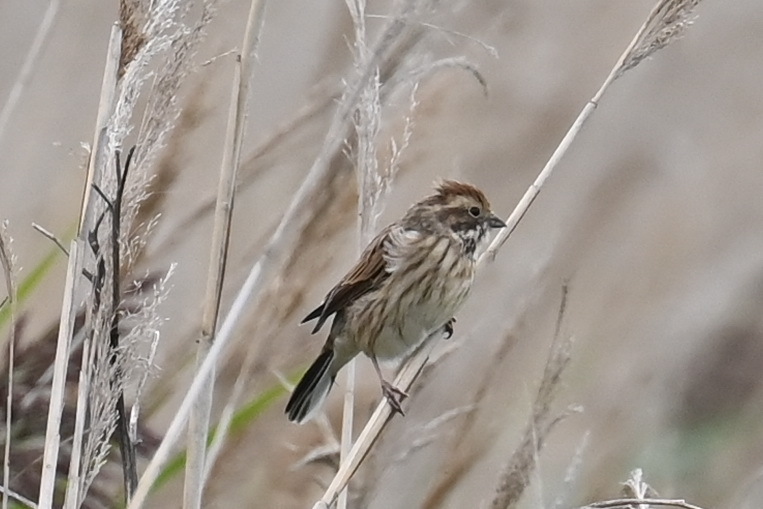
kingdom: Animalia
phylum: Chordata
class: Aves
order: Passeriformes
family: Emberizidae
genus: Emberiza
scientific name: Emberiza schoeniclus
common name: Reed bunting
